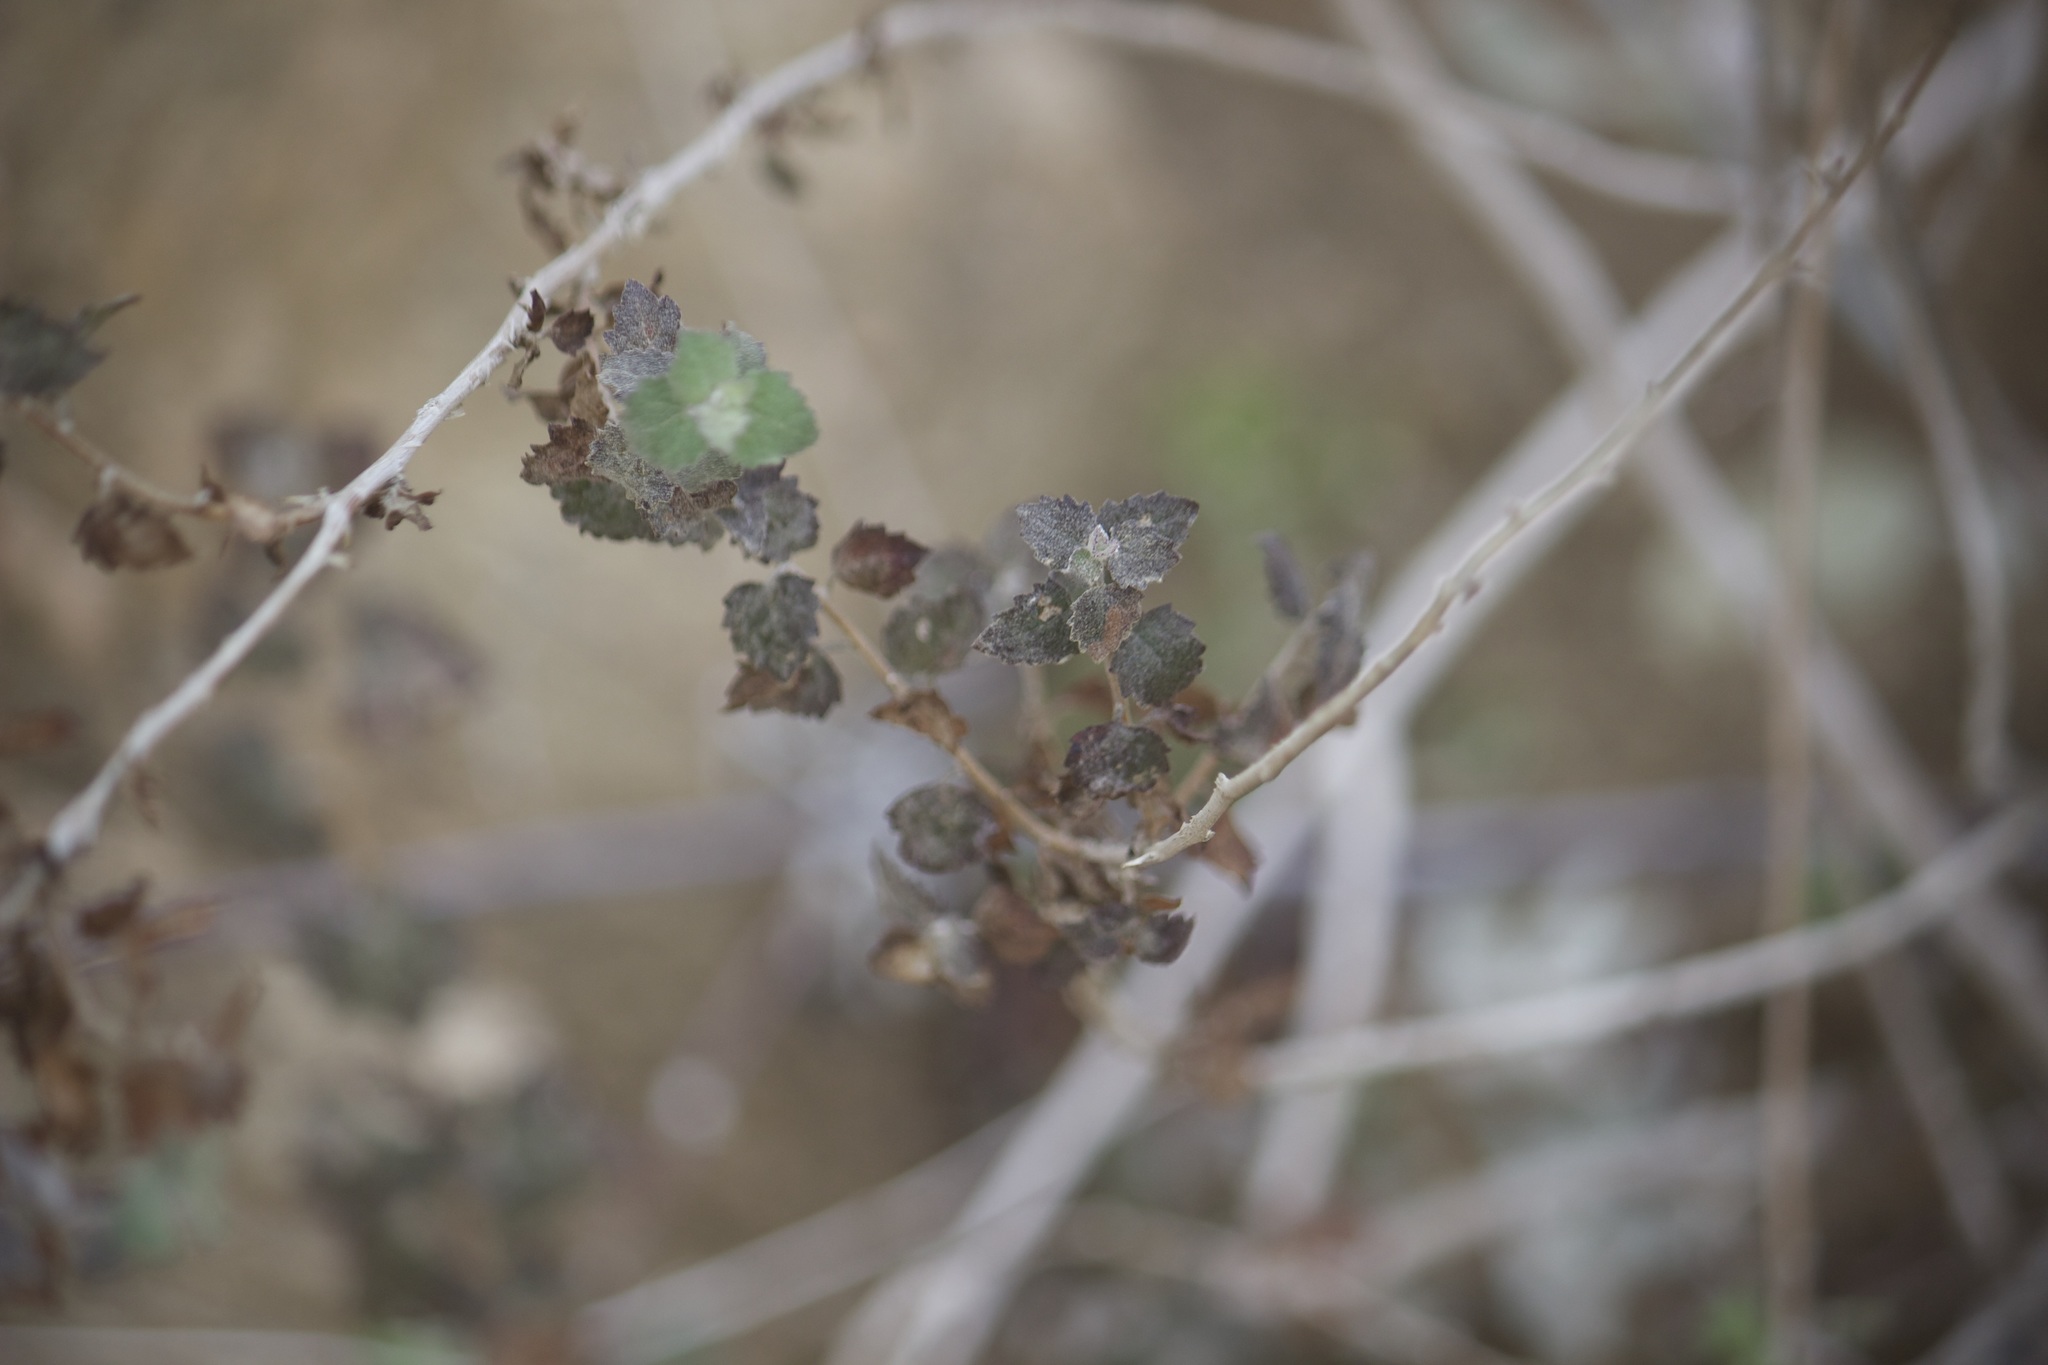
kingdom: Plantae
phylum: Tracheophyta
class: Magnoliopsida
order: Asterales
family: Asteraceae
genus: Brickellia
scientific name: Brickellia californica
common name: California brickellbush
